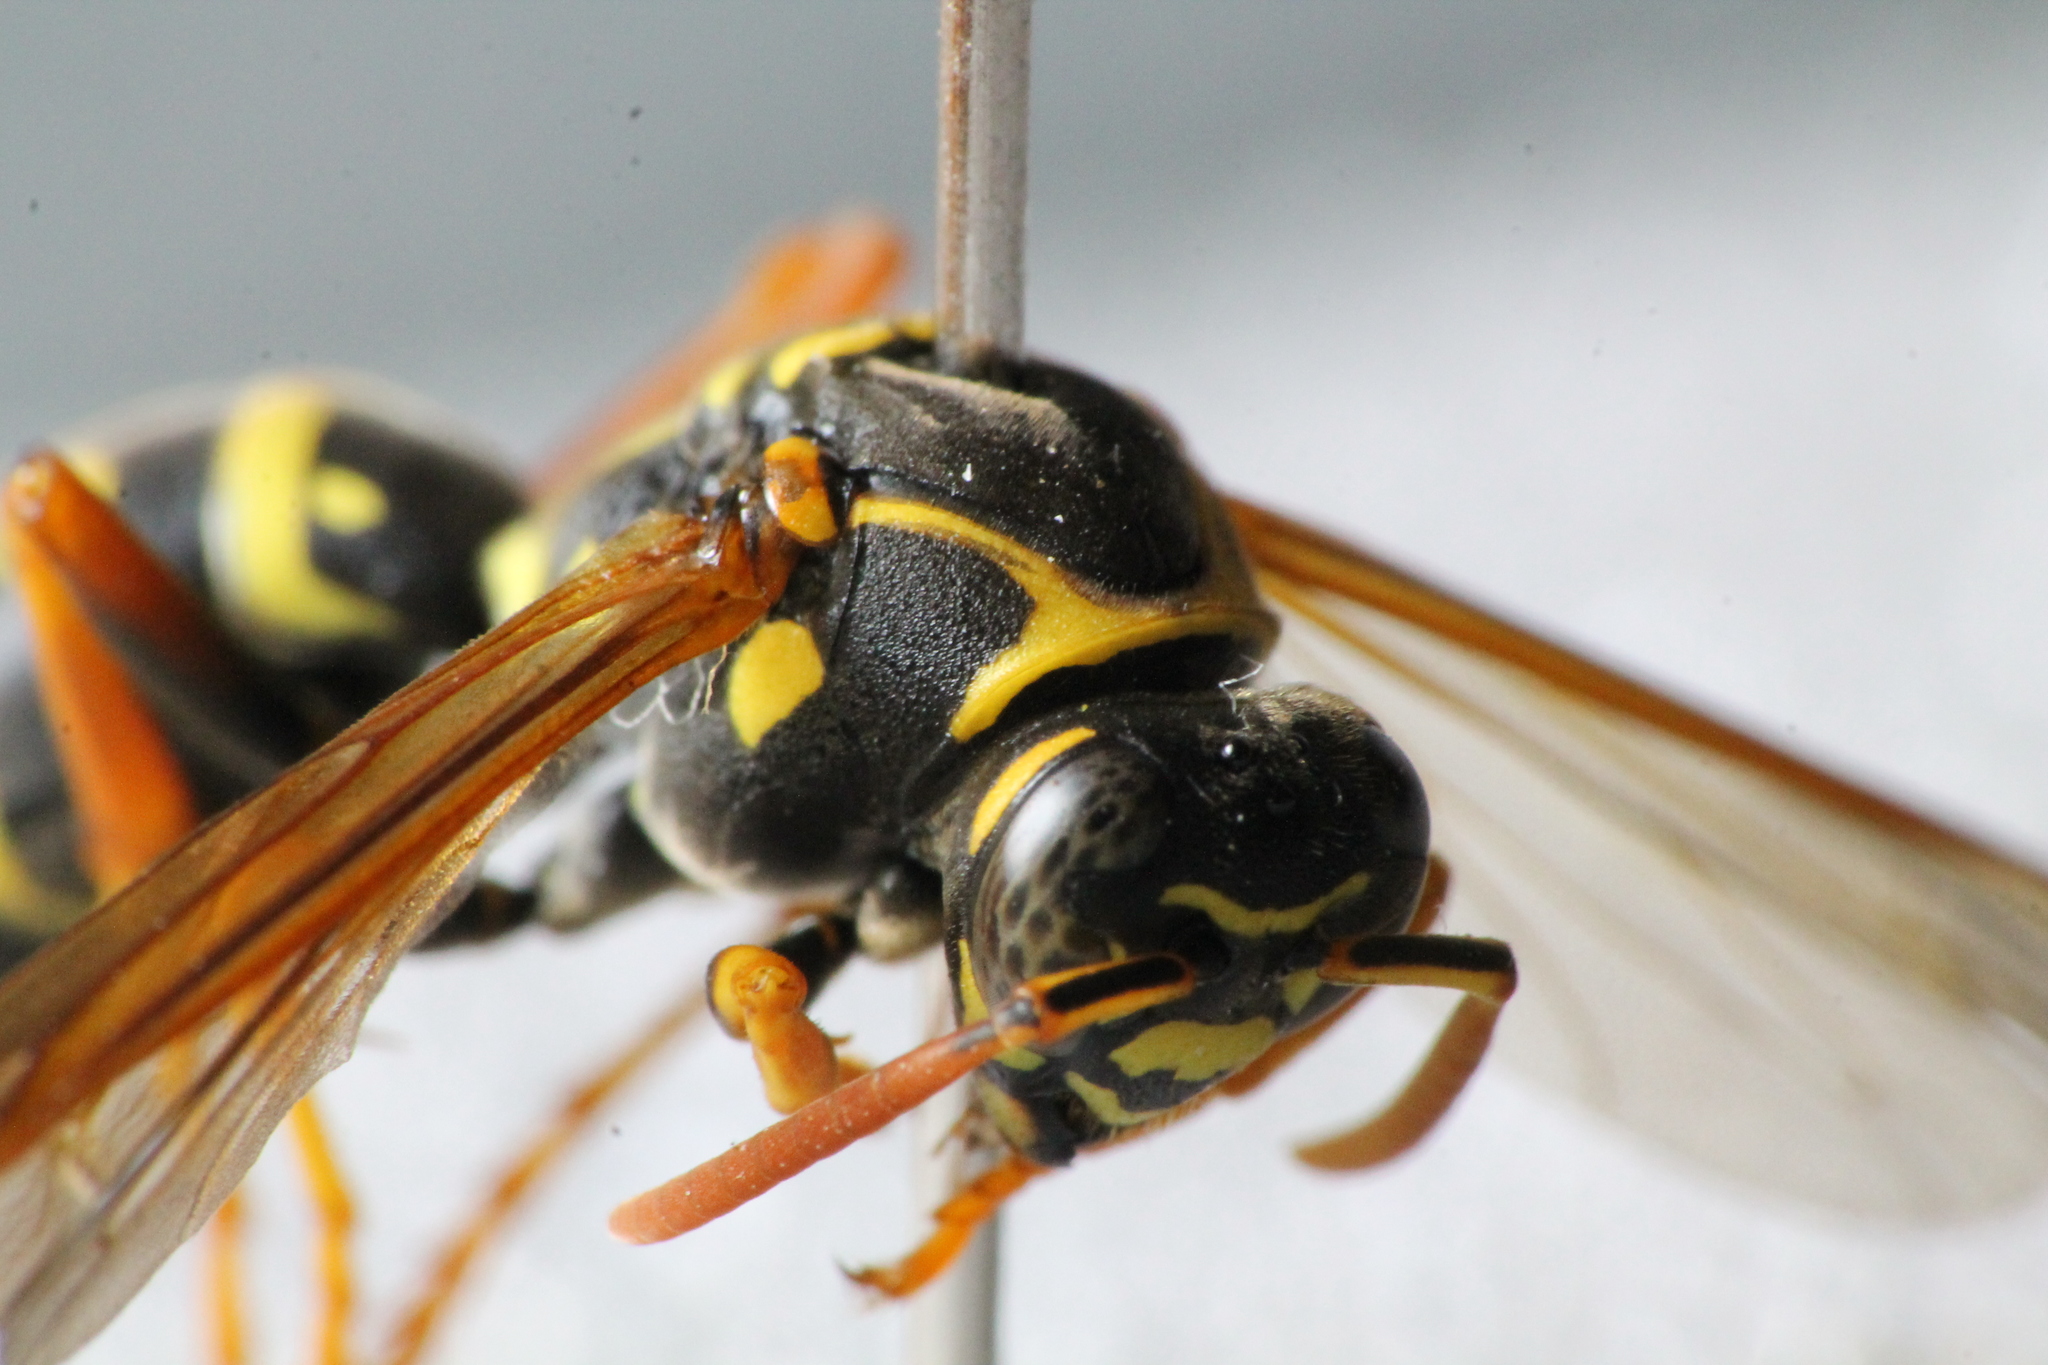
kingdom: Animalia
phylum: Arthropoda
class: Insecta
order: Hymenoptera
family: Eumenidae
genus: Polistes
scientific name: Polistes chinensis
